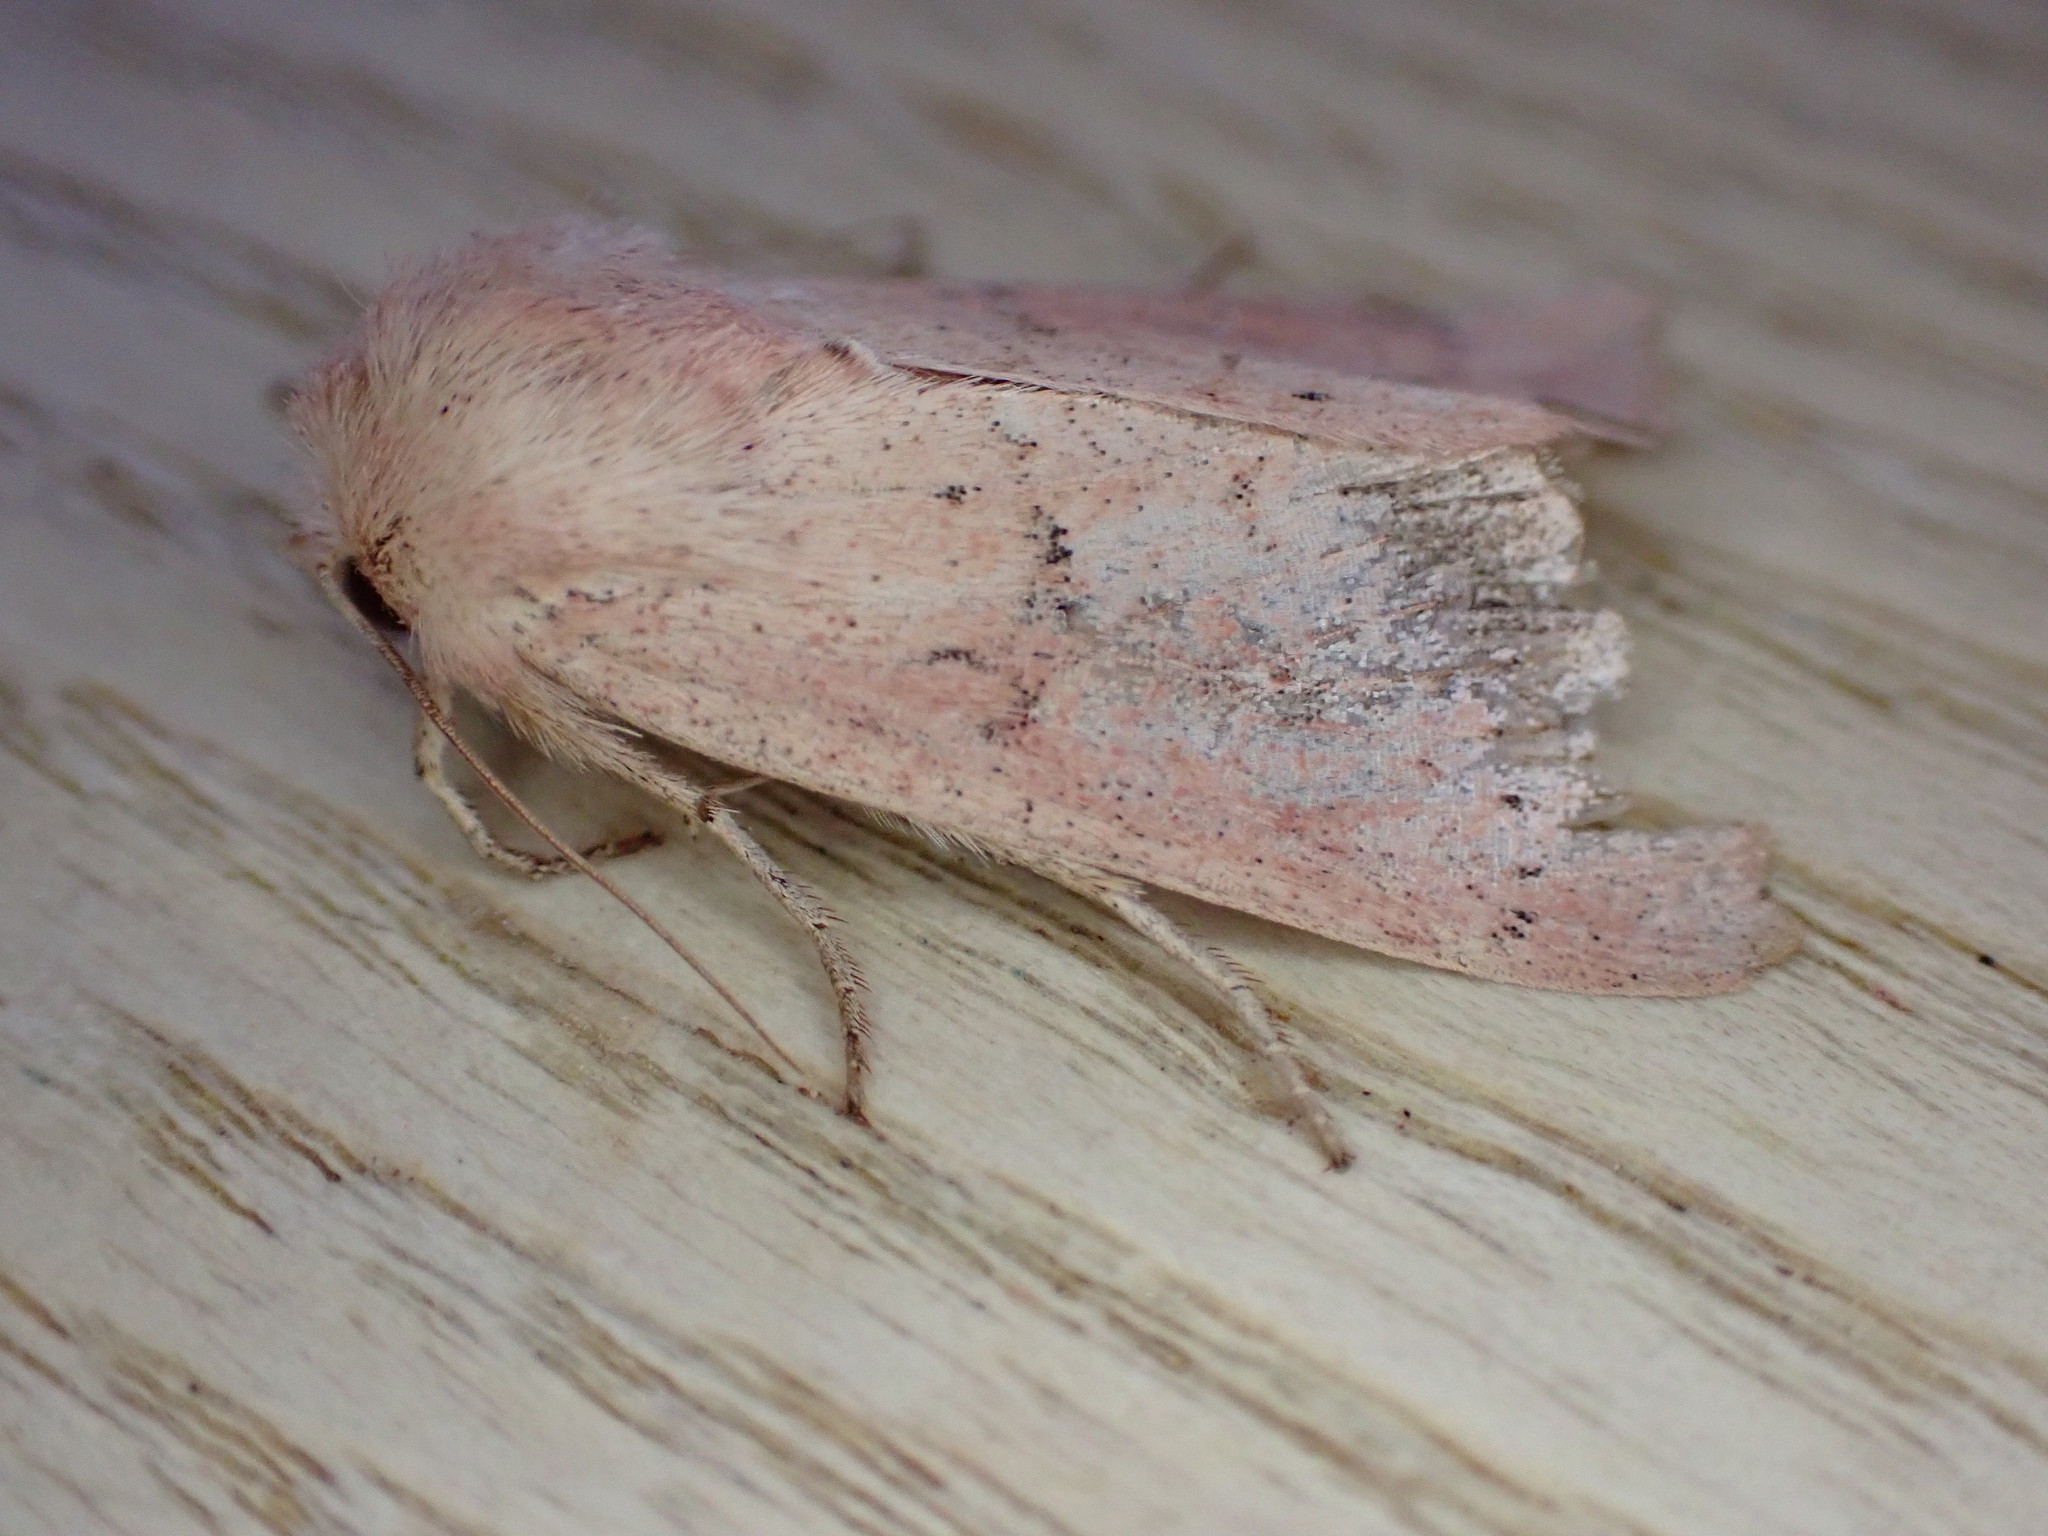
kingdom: Animalia
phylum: Arthropoda
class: Insecta
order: Lepidoptera
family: Noctuidae
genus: Mythimna
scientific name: Mythimna ferrago
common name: Clay
